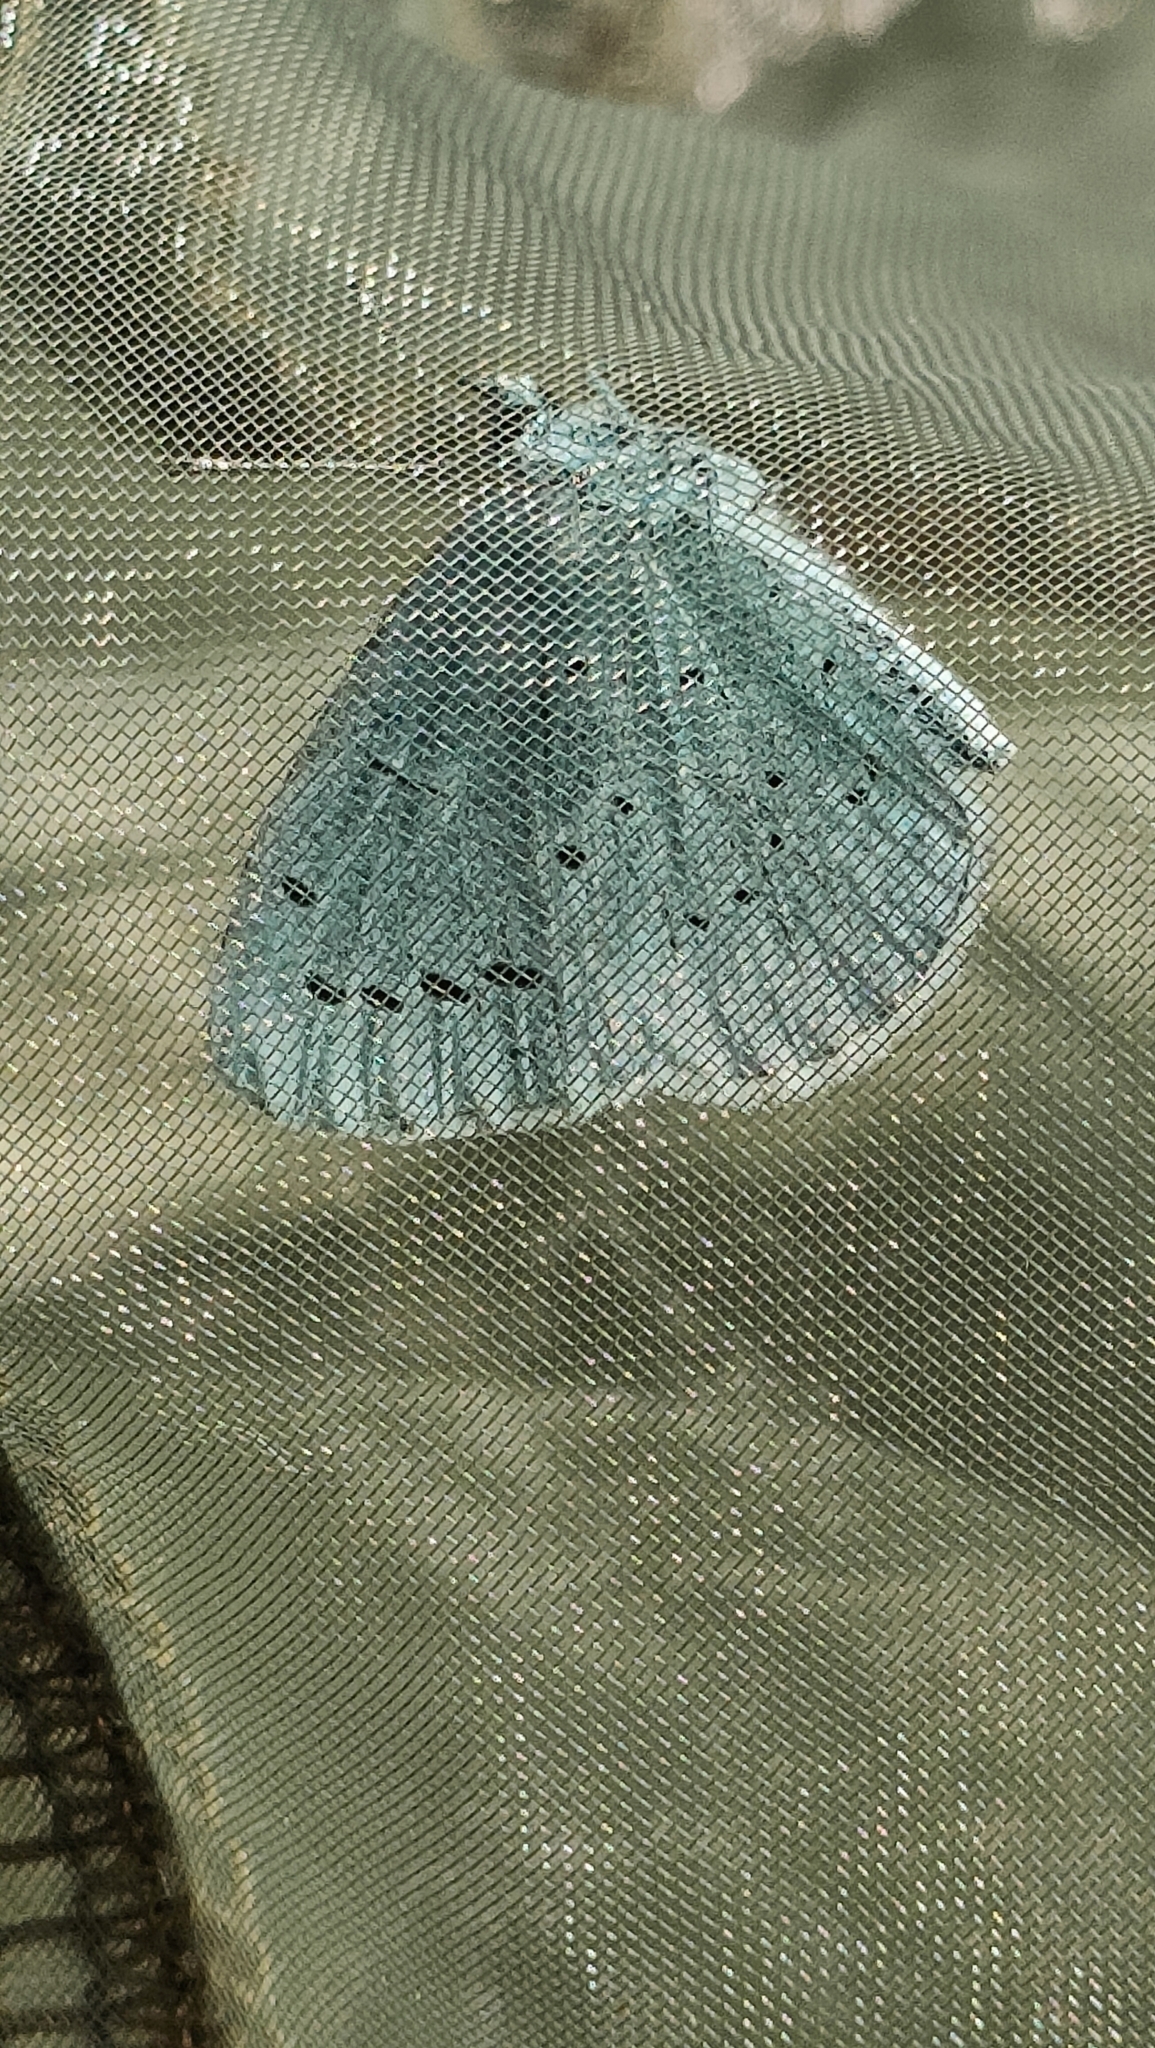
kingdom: Animalia
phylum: Arthropoda
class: Insecta
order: Lepidoptera
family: Lycaenidae
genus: Celastrina
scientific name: Celastrina argiolus
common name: Holly blue
